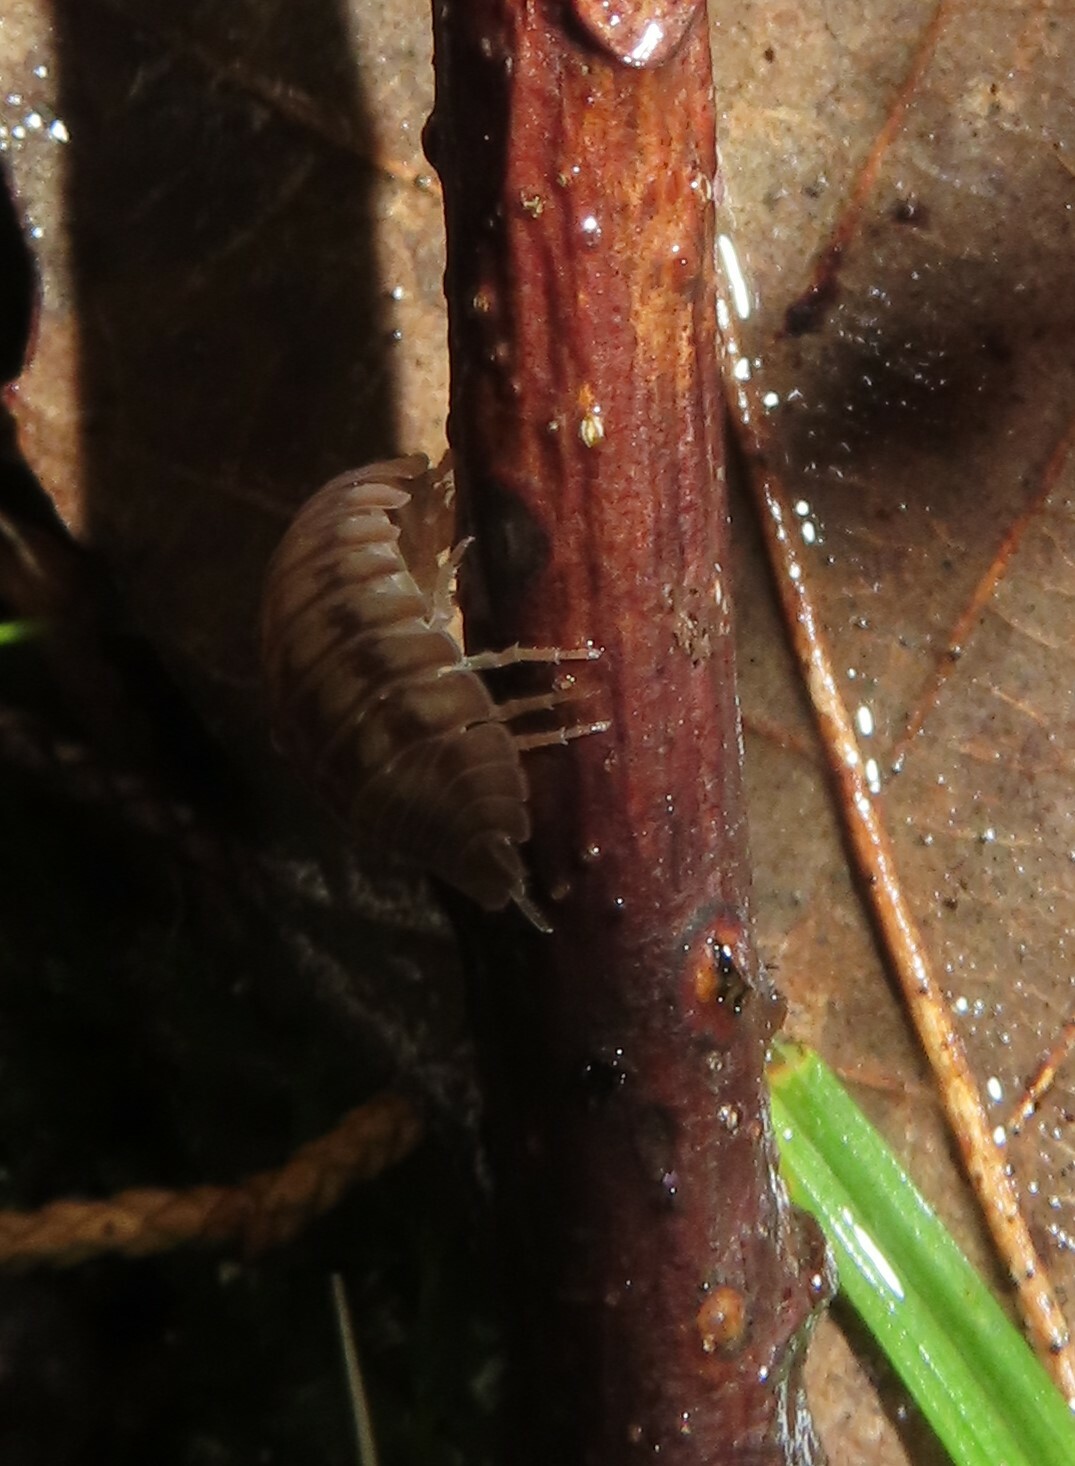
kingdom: Animalia
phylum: Arthropoda
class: Malacostraca
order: Isopoda
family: Armadillidiidae
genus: Armadillidium
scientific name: Armadillidium nasatum
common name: Isopod
